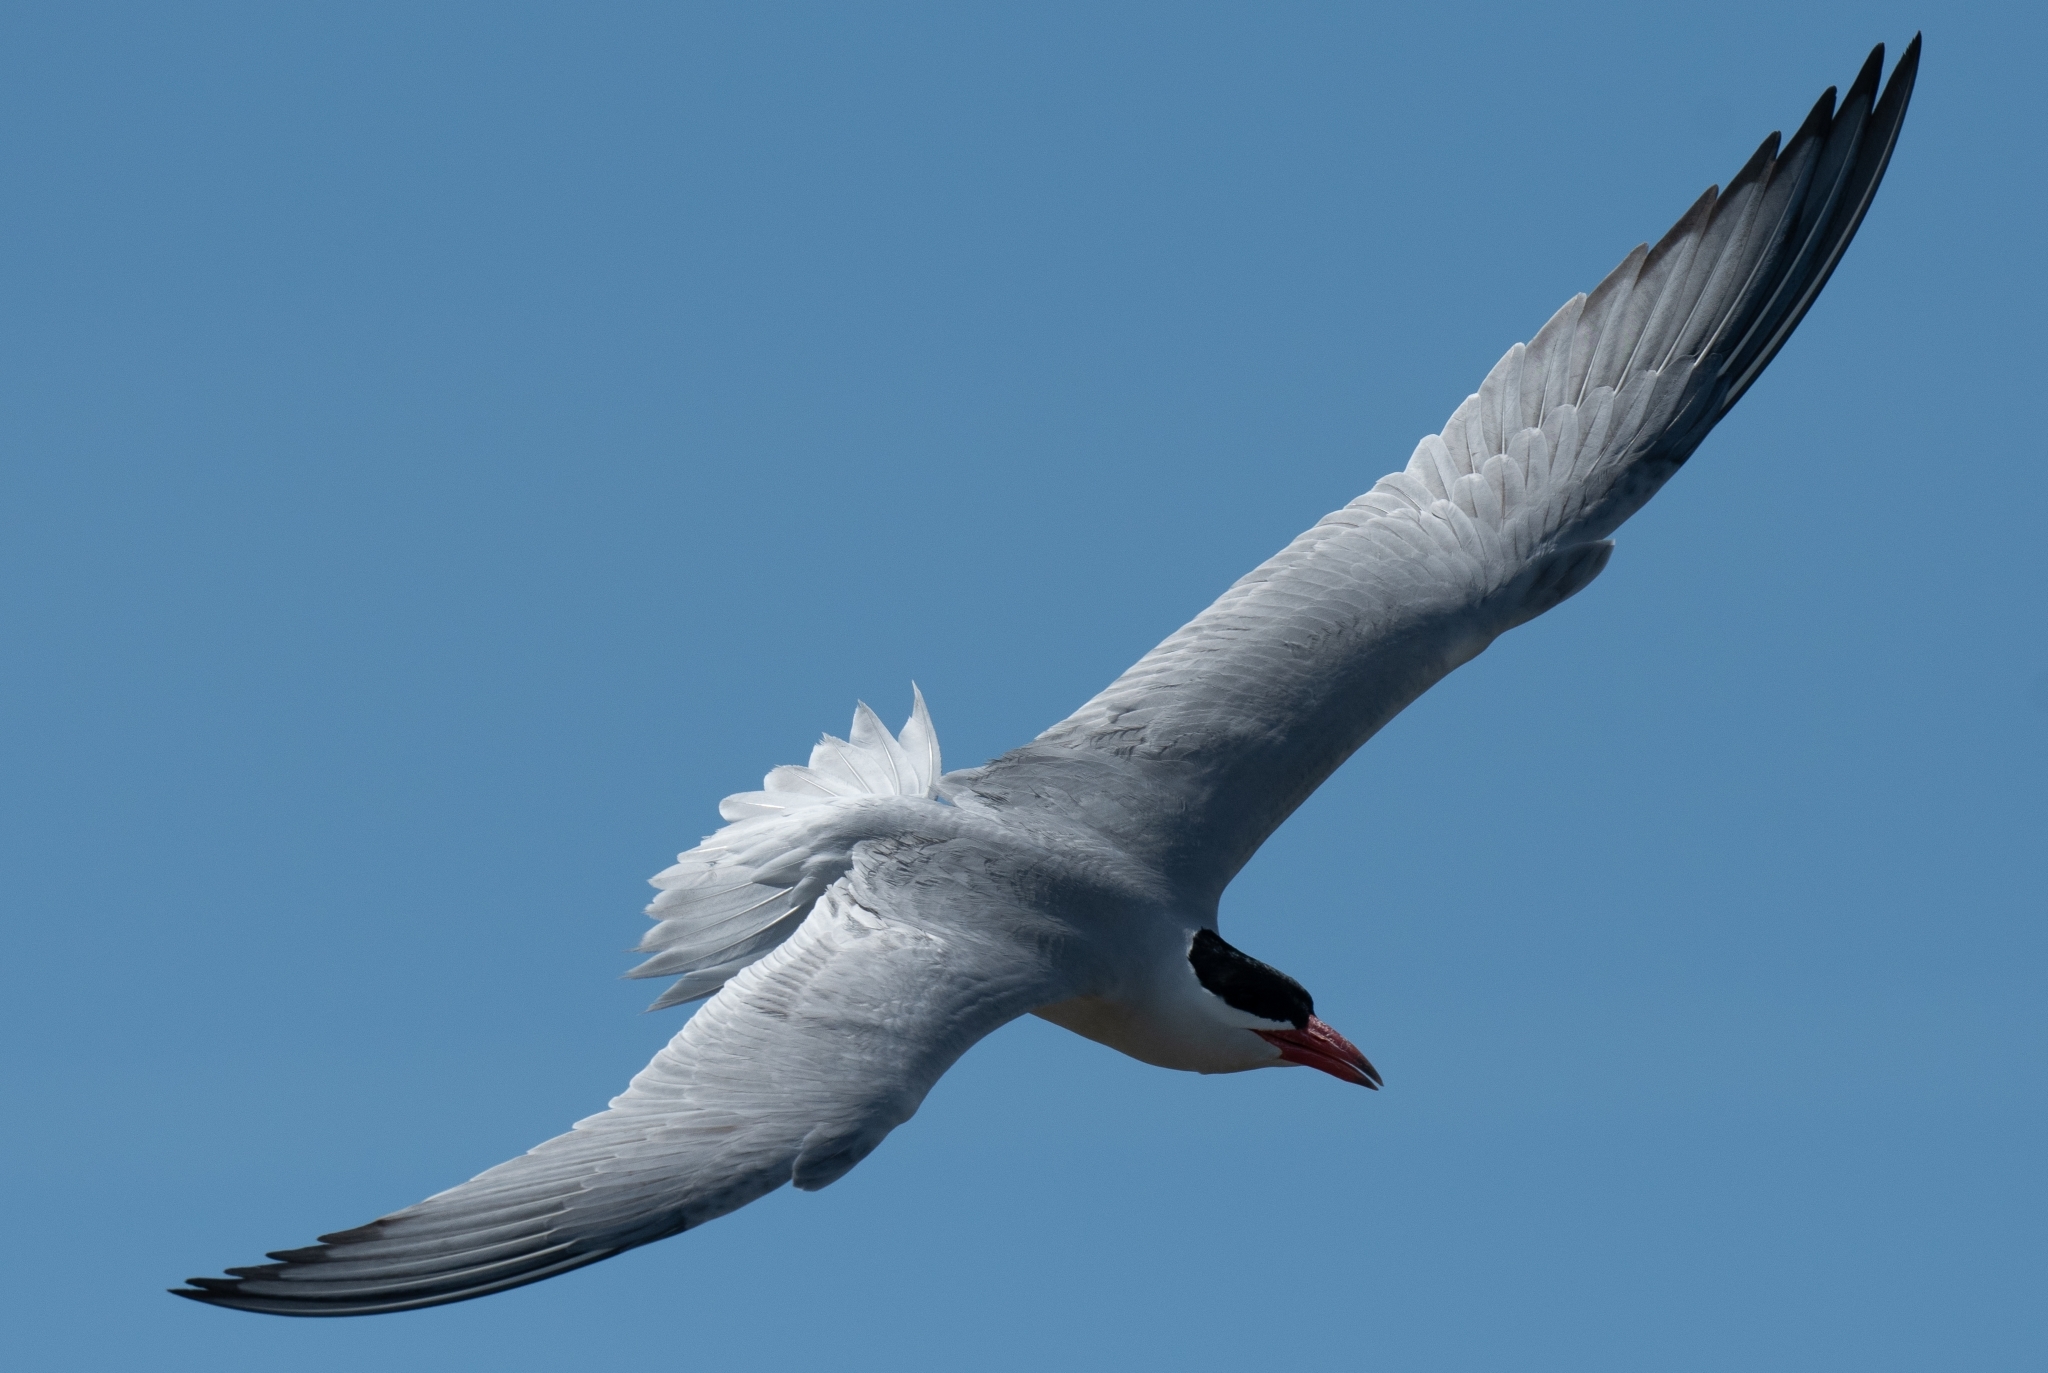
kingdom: Animalia
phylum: Chordata
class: Aves
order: Charadriiformes
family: Laridae
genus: Hydroprogne
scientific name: Hydroprogne caspia
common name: Caspian tern
